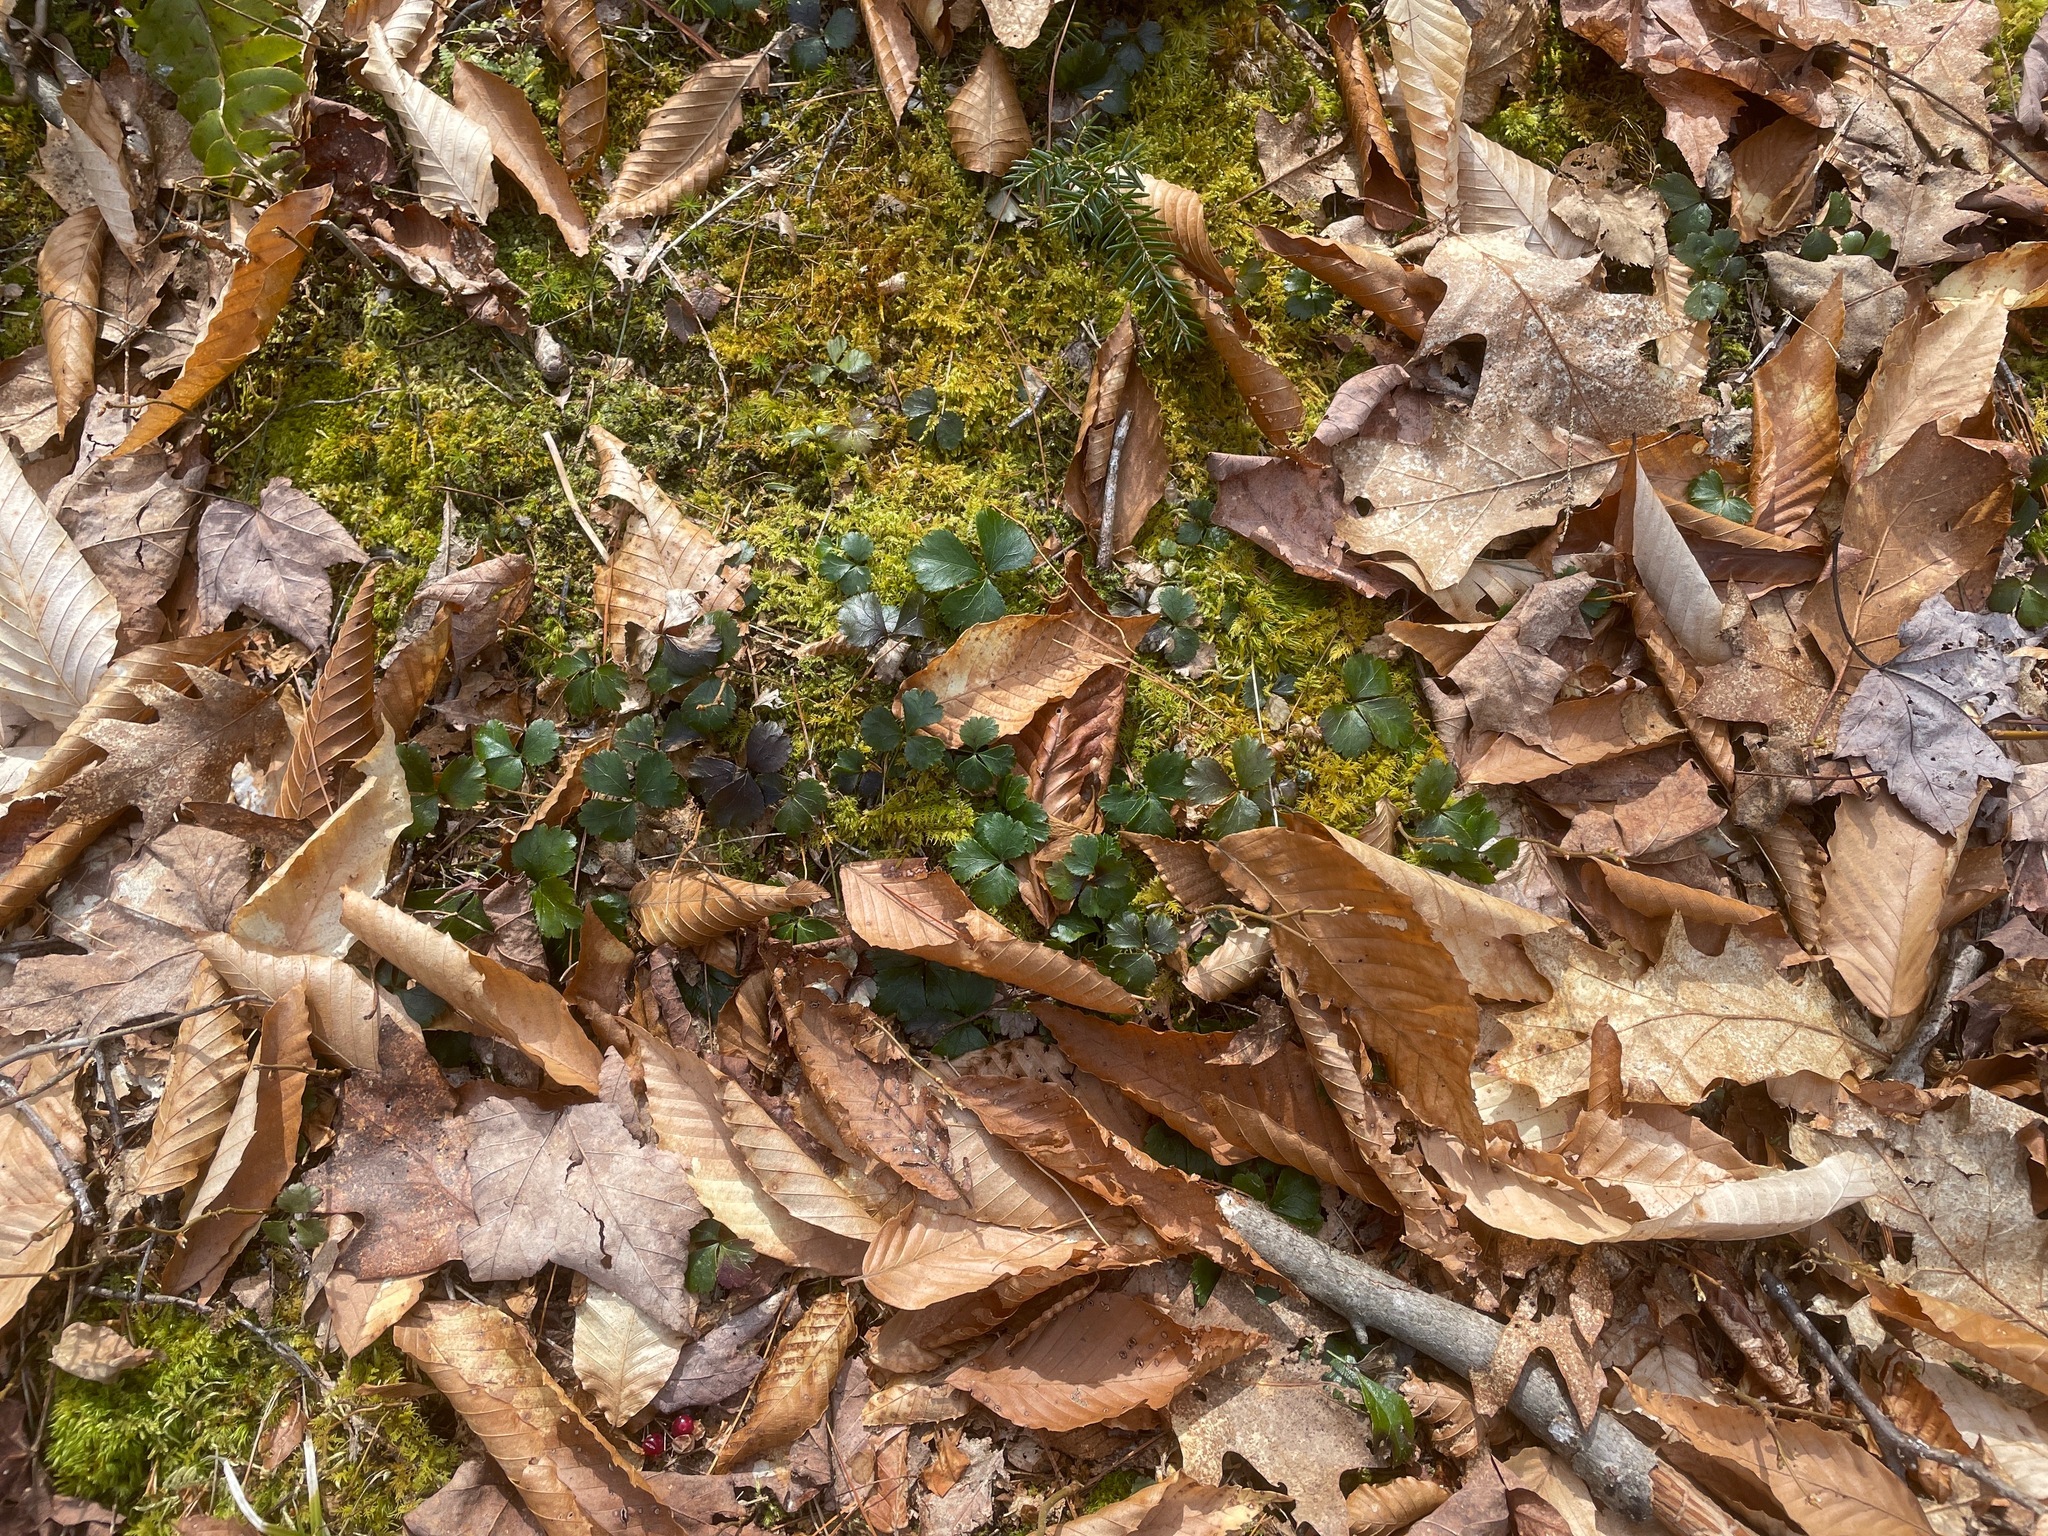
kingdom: Plantae
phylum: Tracheophyta
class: Magnoliopsida
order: Ranunculales
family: Ranunculaceae
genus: Coptis
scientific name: Coptis trifolia
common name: Canker-root
